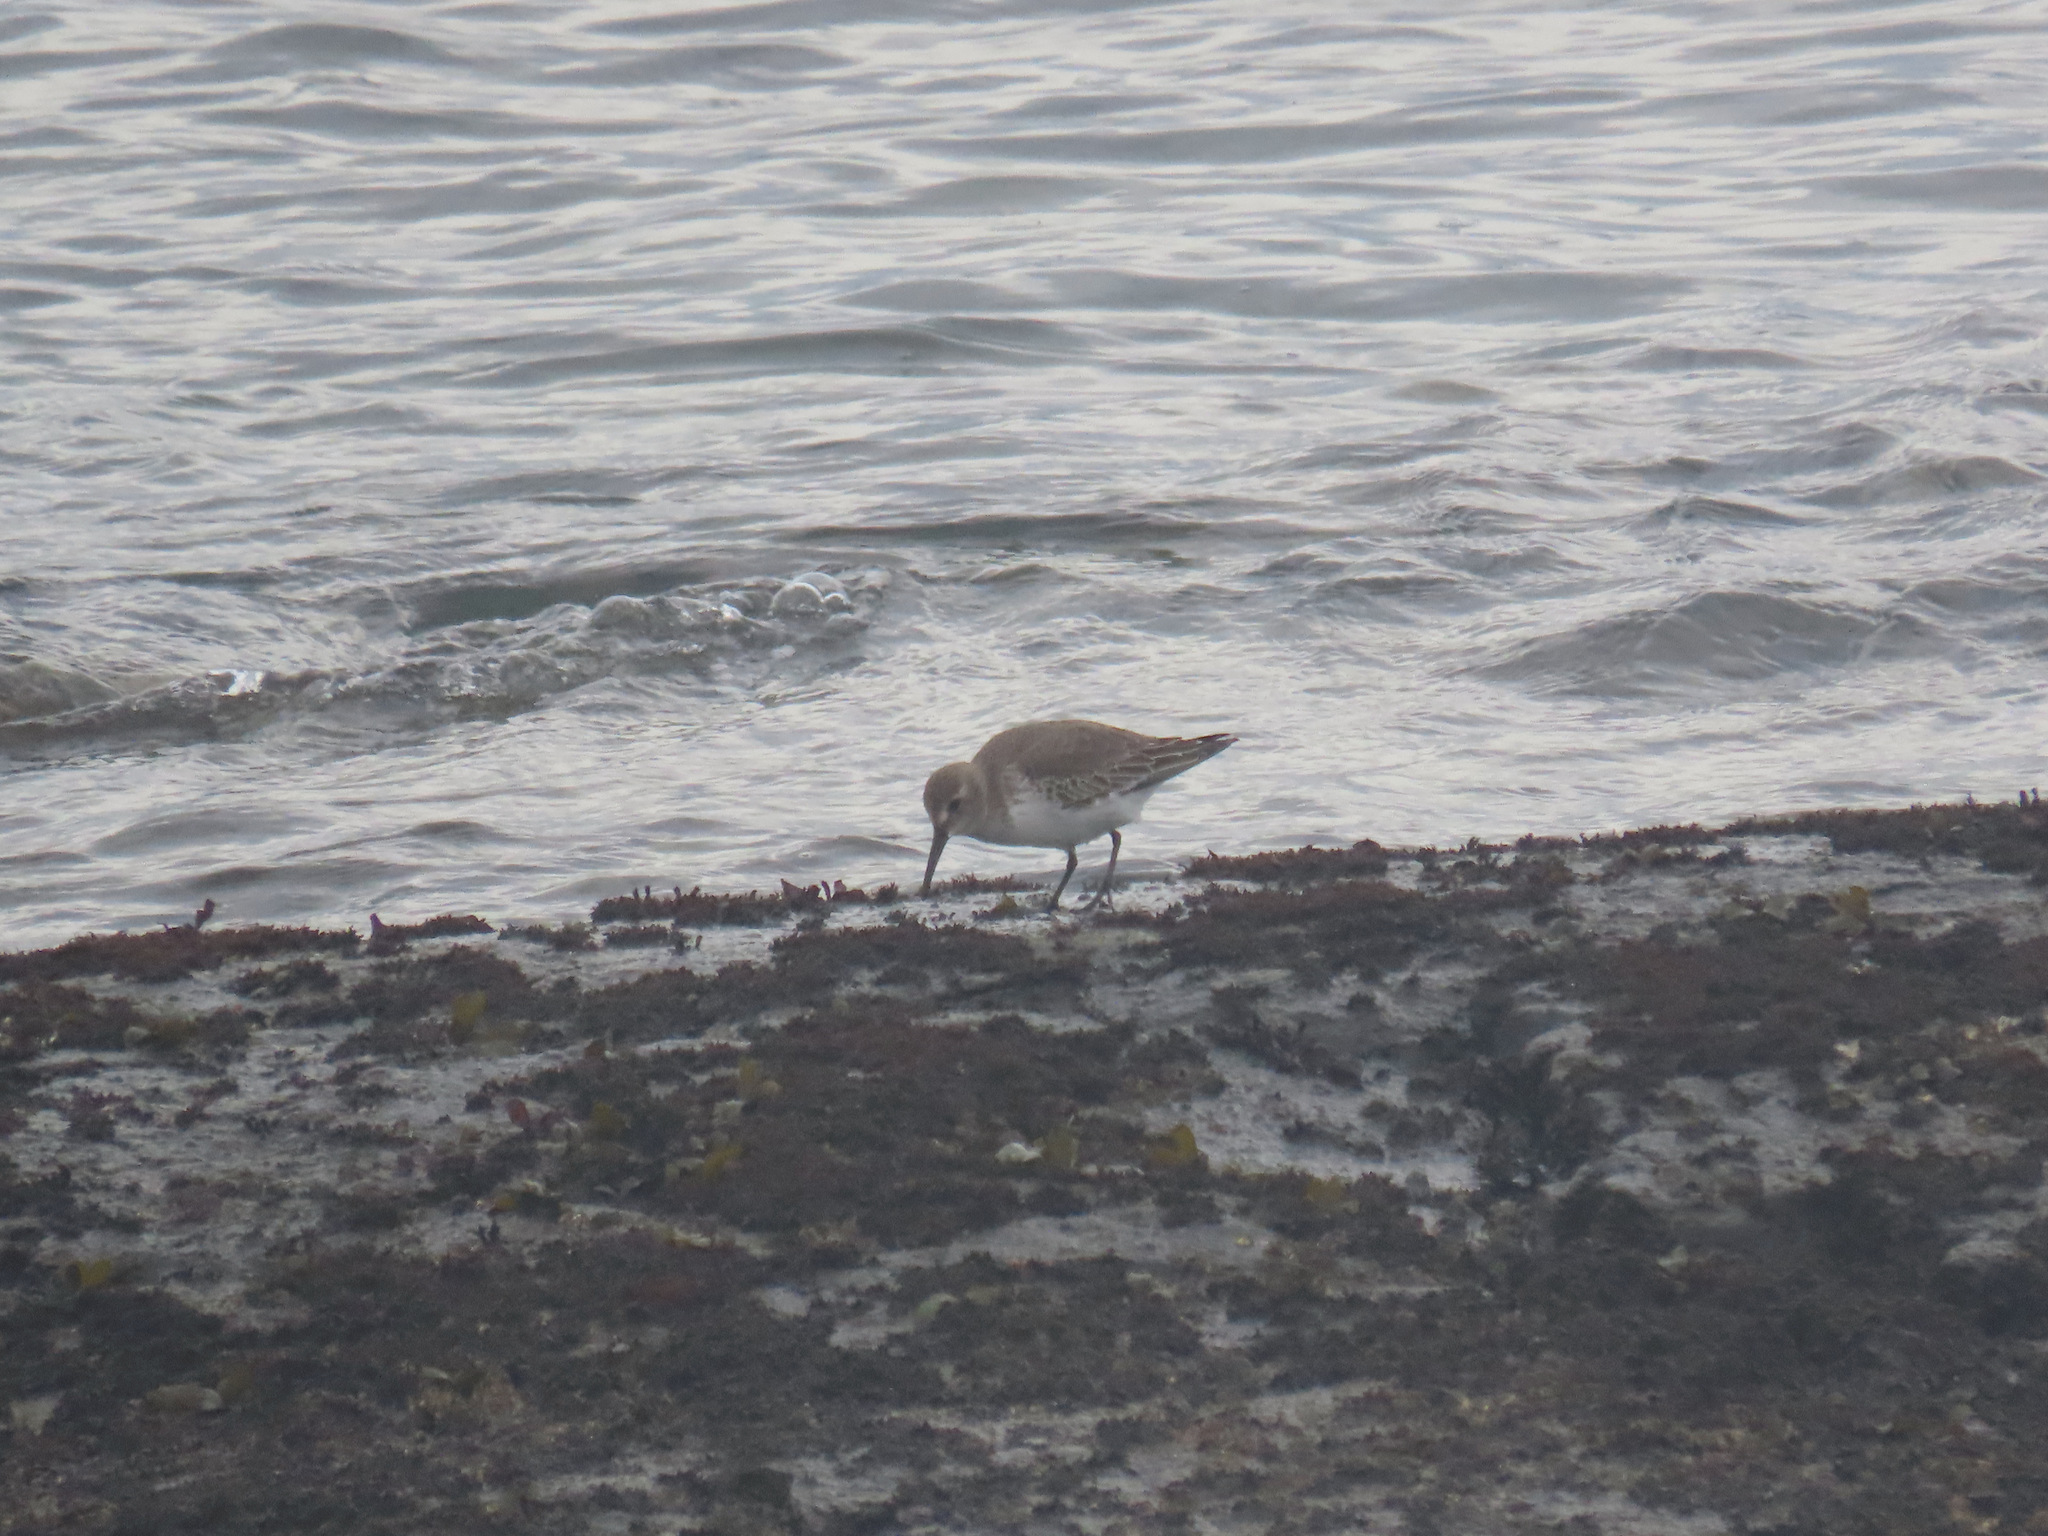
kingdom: Animalia
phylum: Chordata
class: Aves
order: Charadriiformes
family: Scolopacidae
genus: Calidris
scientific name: Calidris alpina
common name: Dunlin
